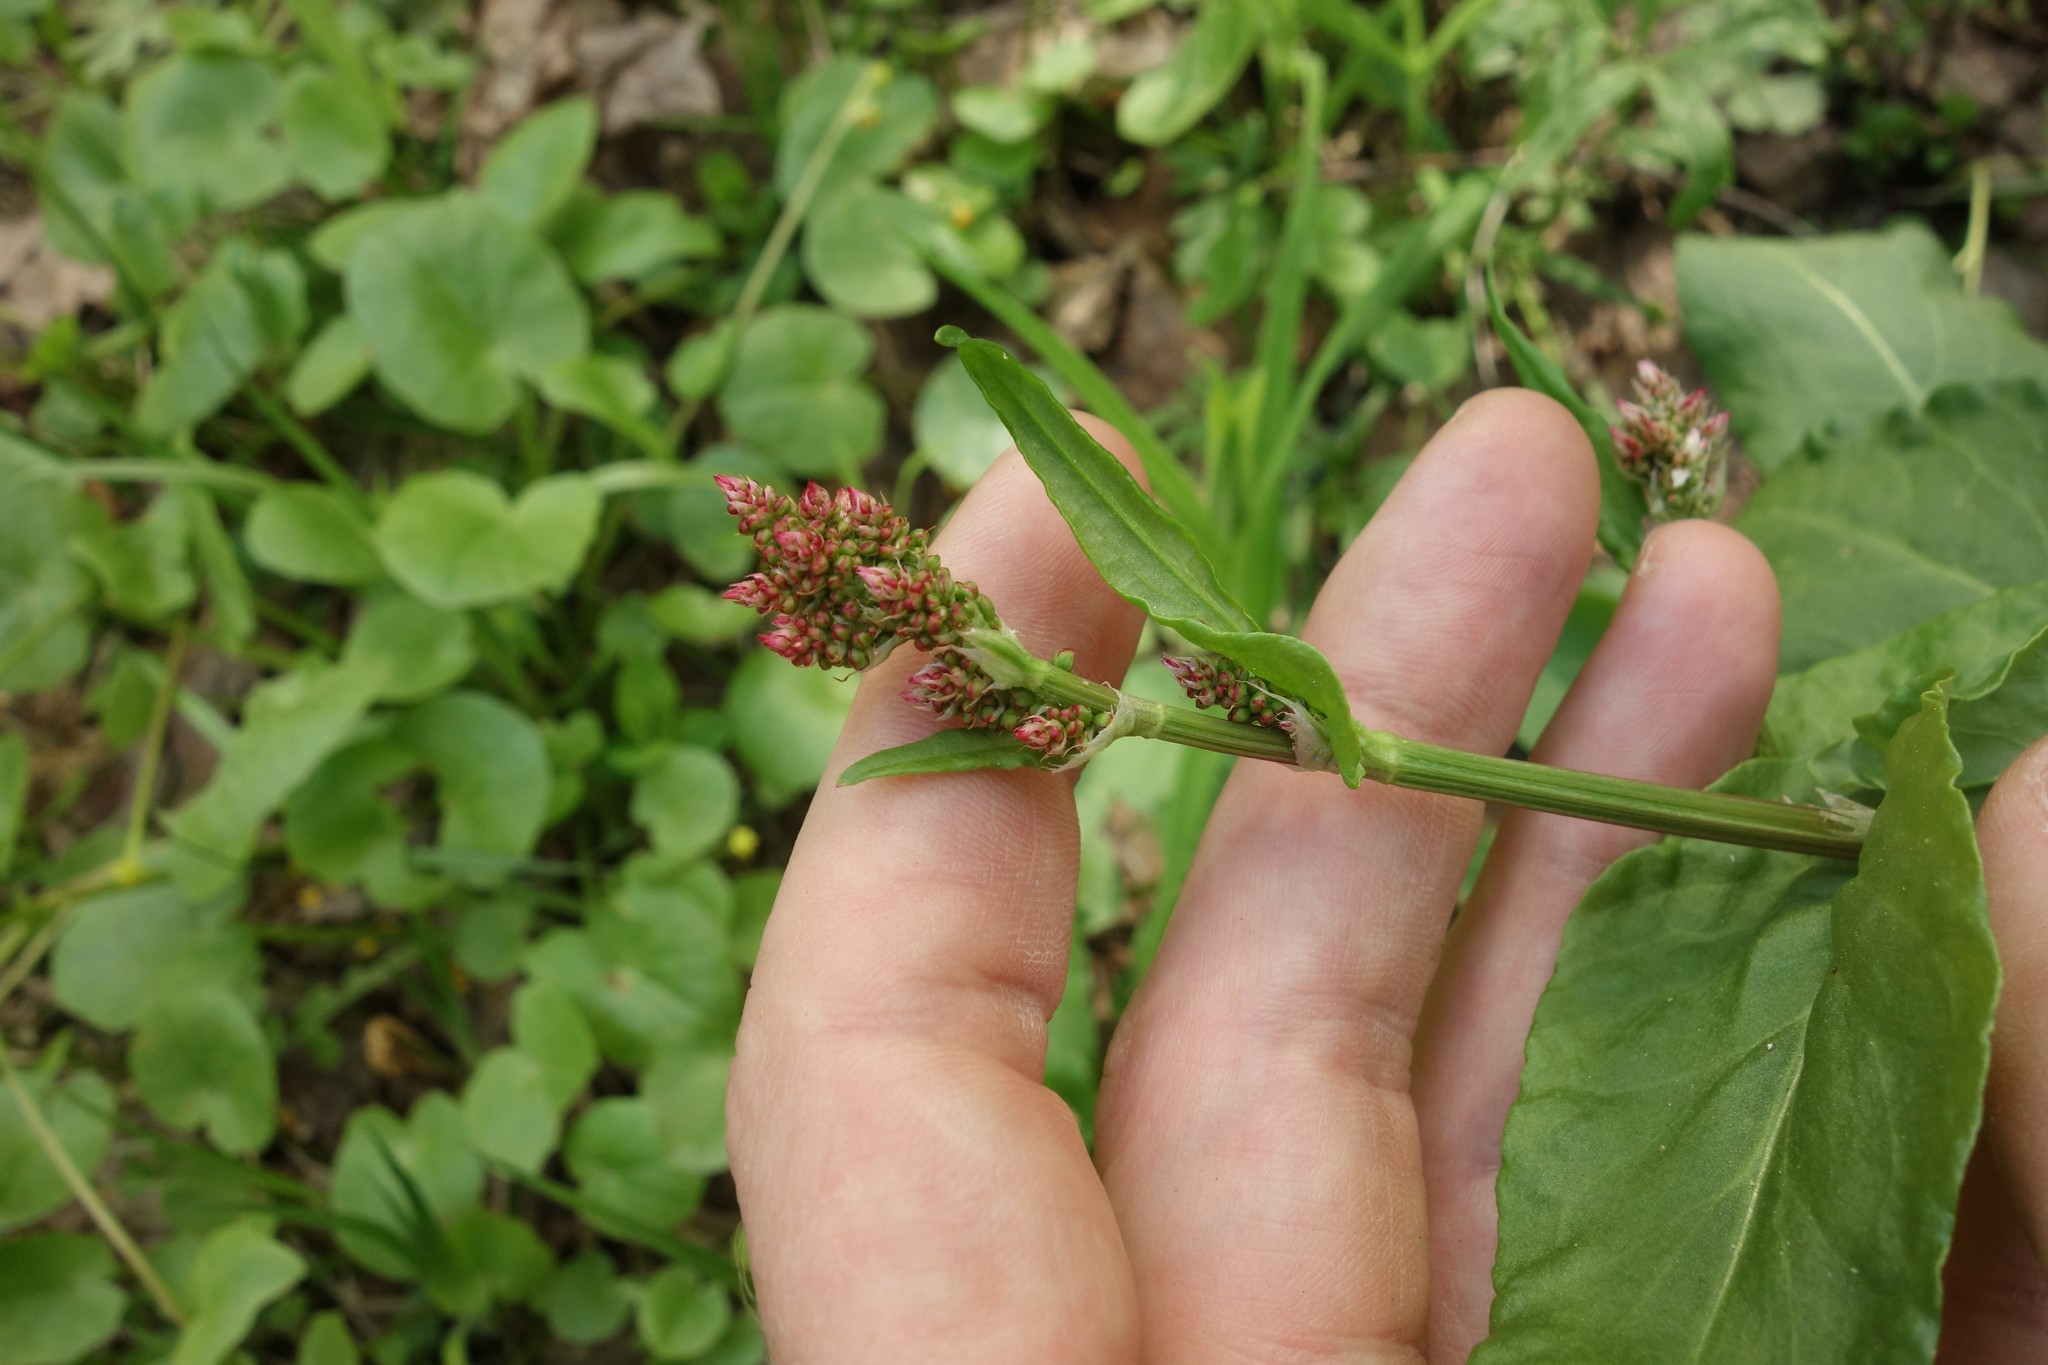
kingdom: Plantae
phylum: Tracheophyta
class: Magnoliopsida
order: Caryophyllales
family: Polygonaceae
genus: Rumex
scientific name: Rumex acetosa
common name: Garden sorrel
